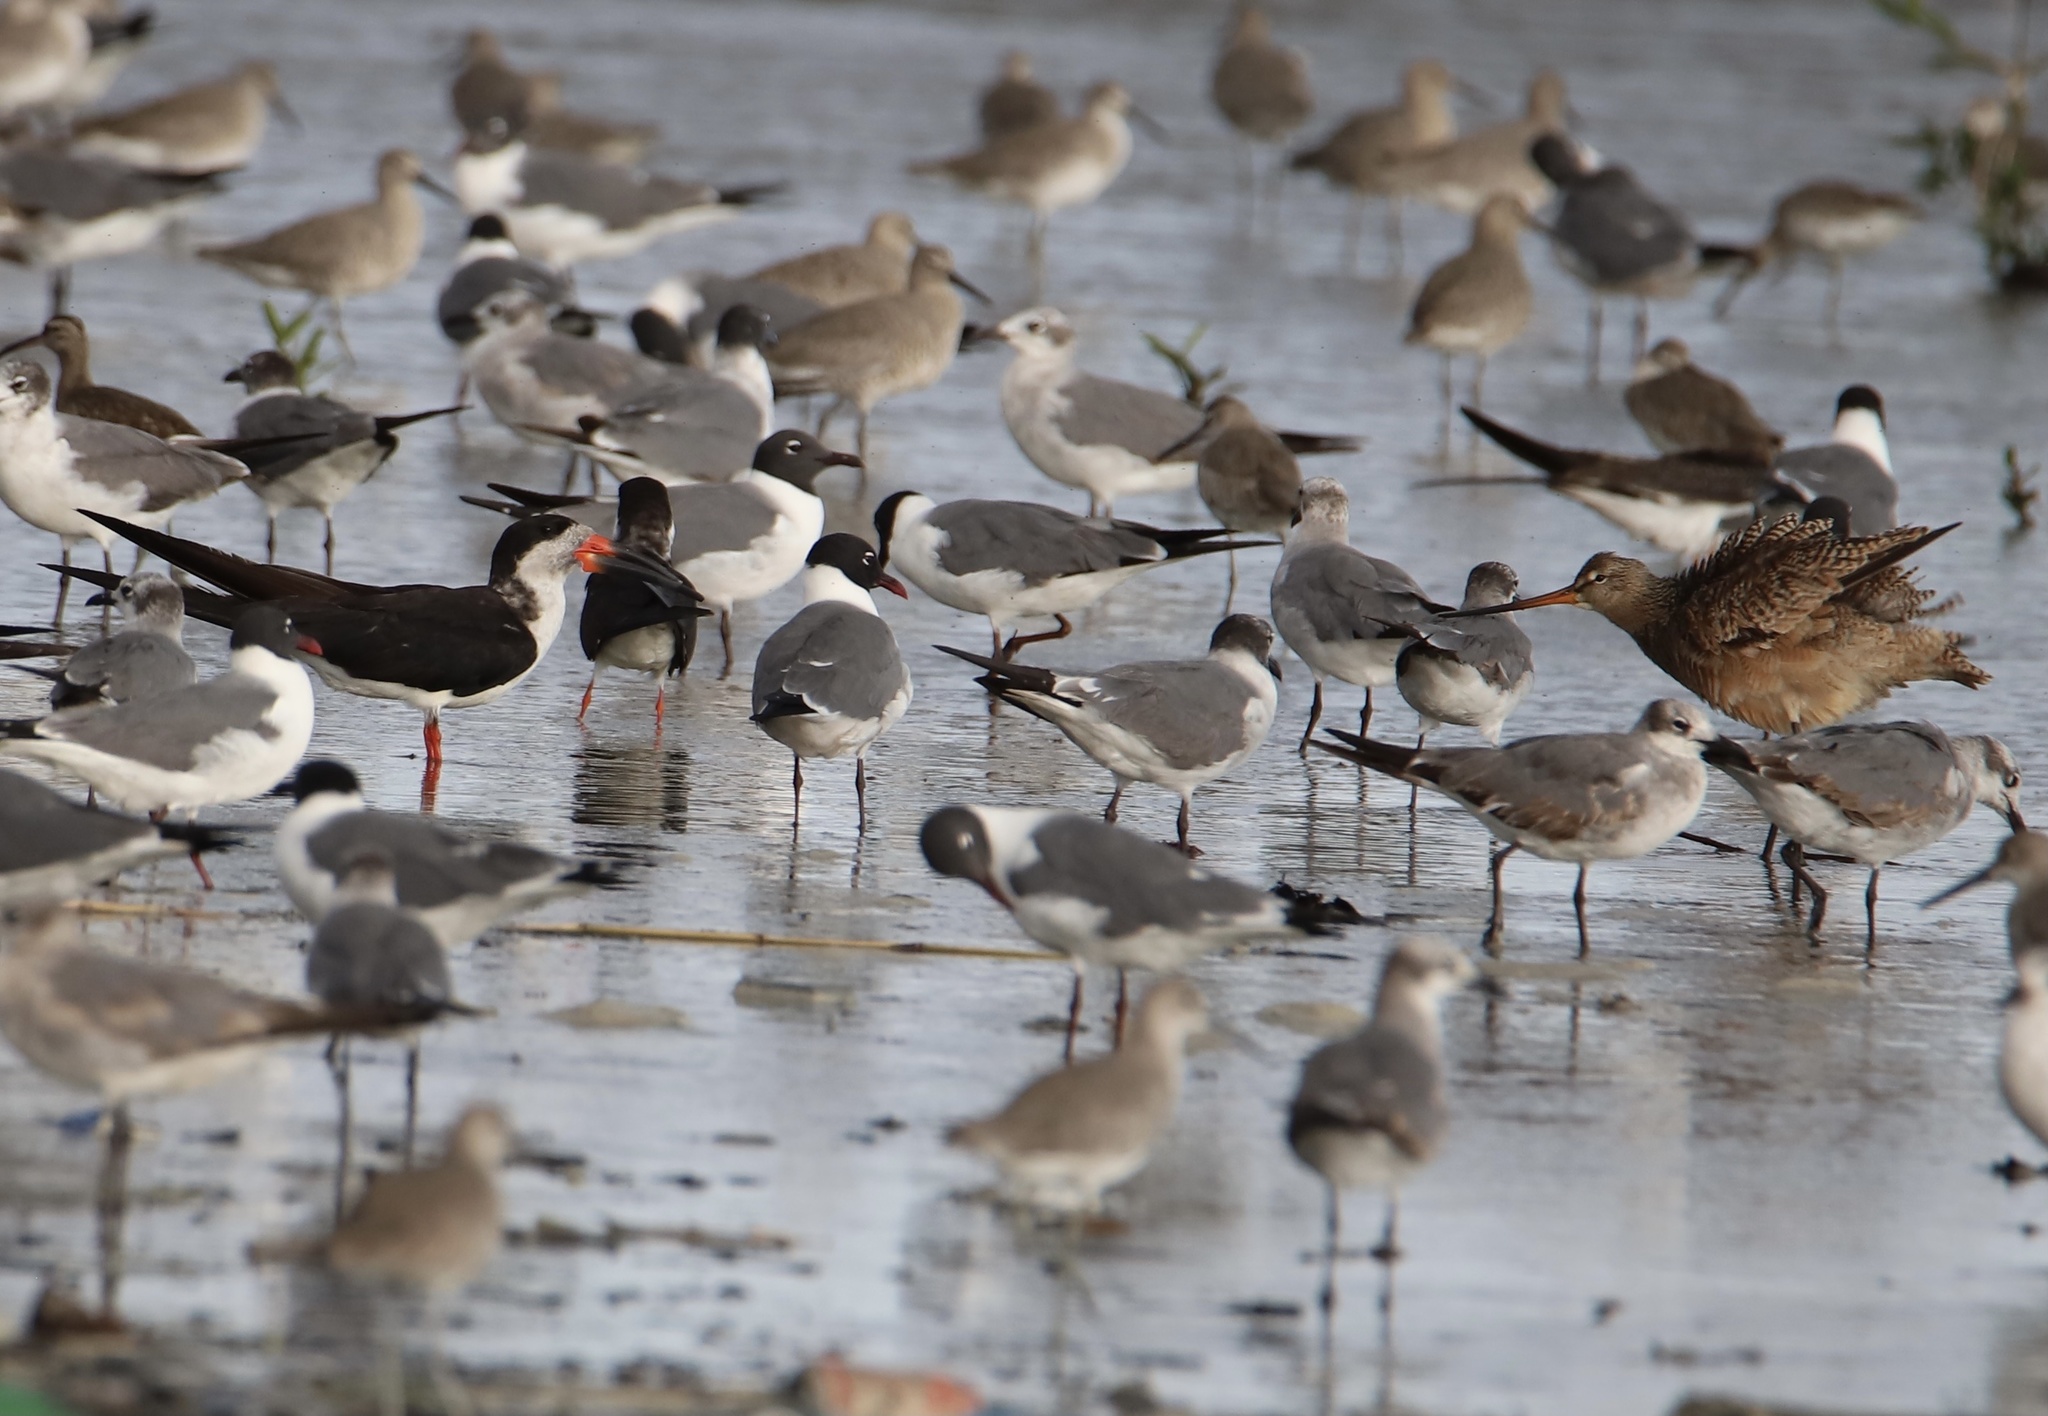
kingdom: Animalia
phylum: Chordata
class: Aves
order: Charadriiformes
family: Scolopacidae
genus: Limosa
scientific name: Limosa fedoa
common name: Marbled godwit
